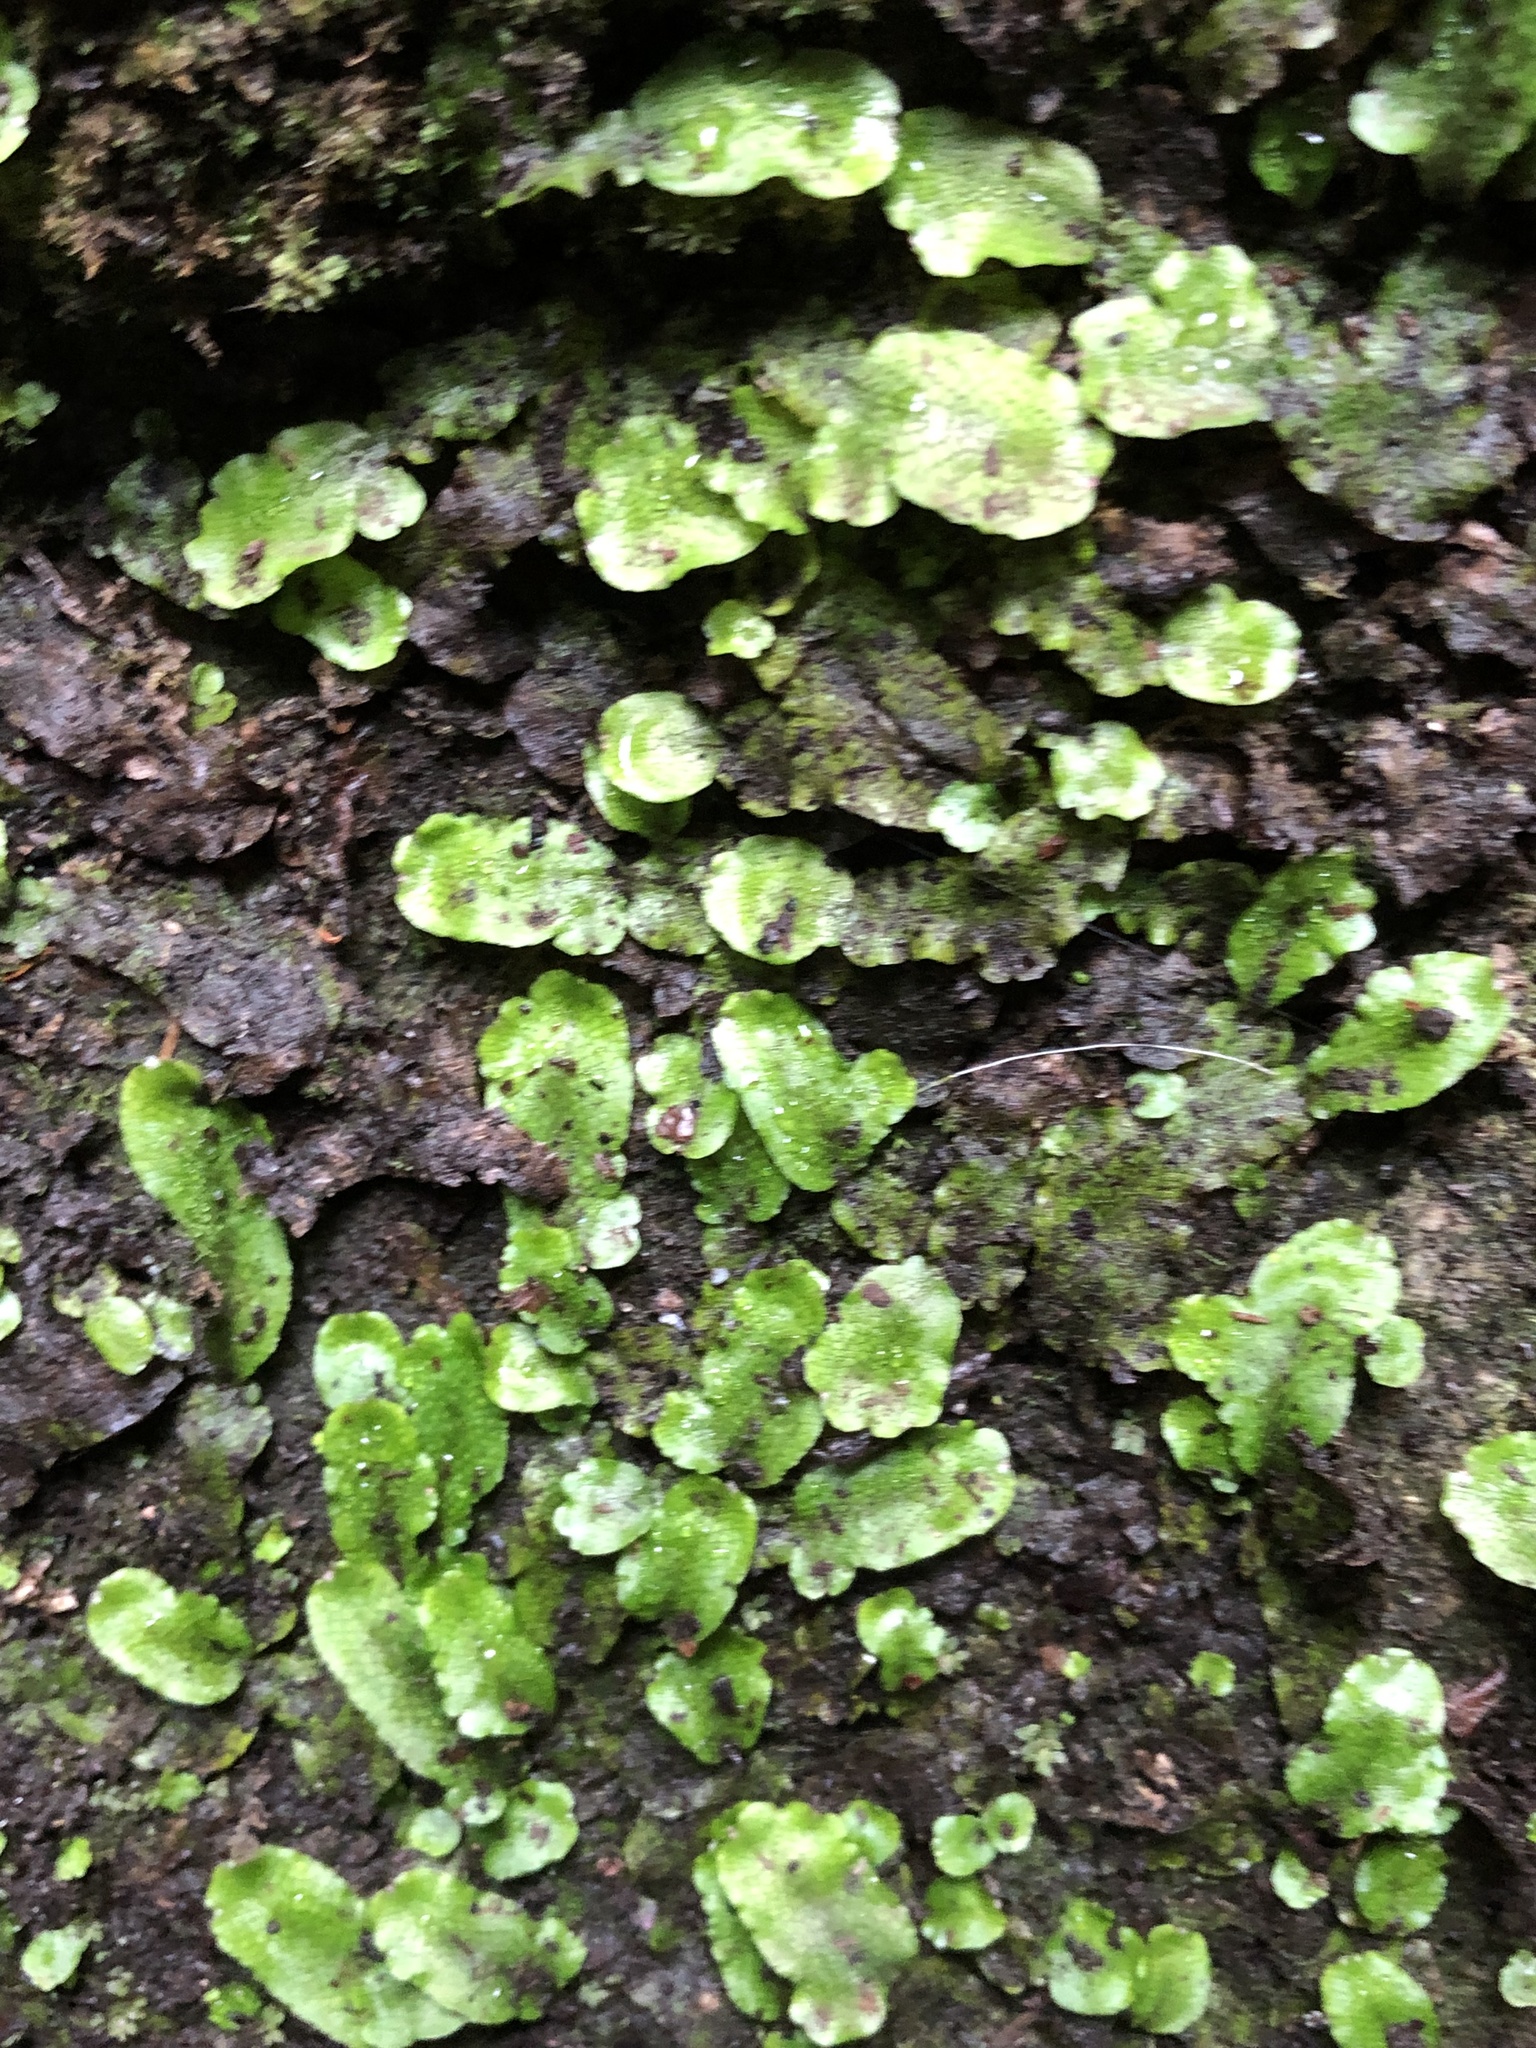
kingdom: Plantae
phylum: Marchantiophyta
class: Marchantiopsida
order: Marchantiales
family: Conocephalaceae
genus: Conocephalum
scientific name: Conocephalum salebrosum
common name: Cat-tongue liverwort
